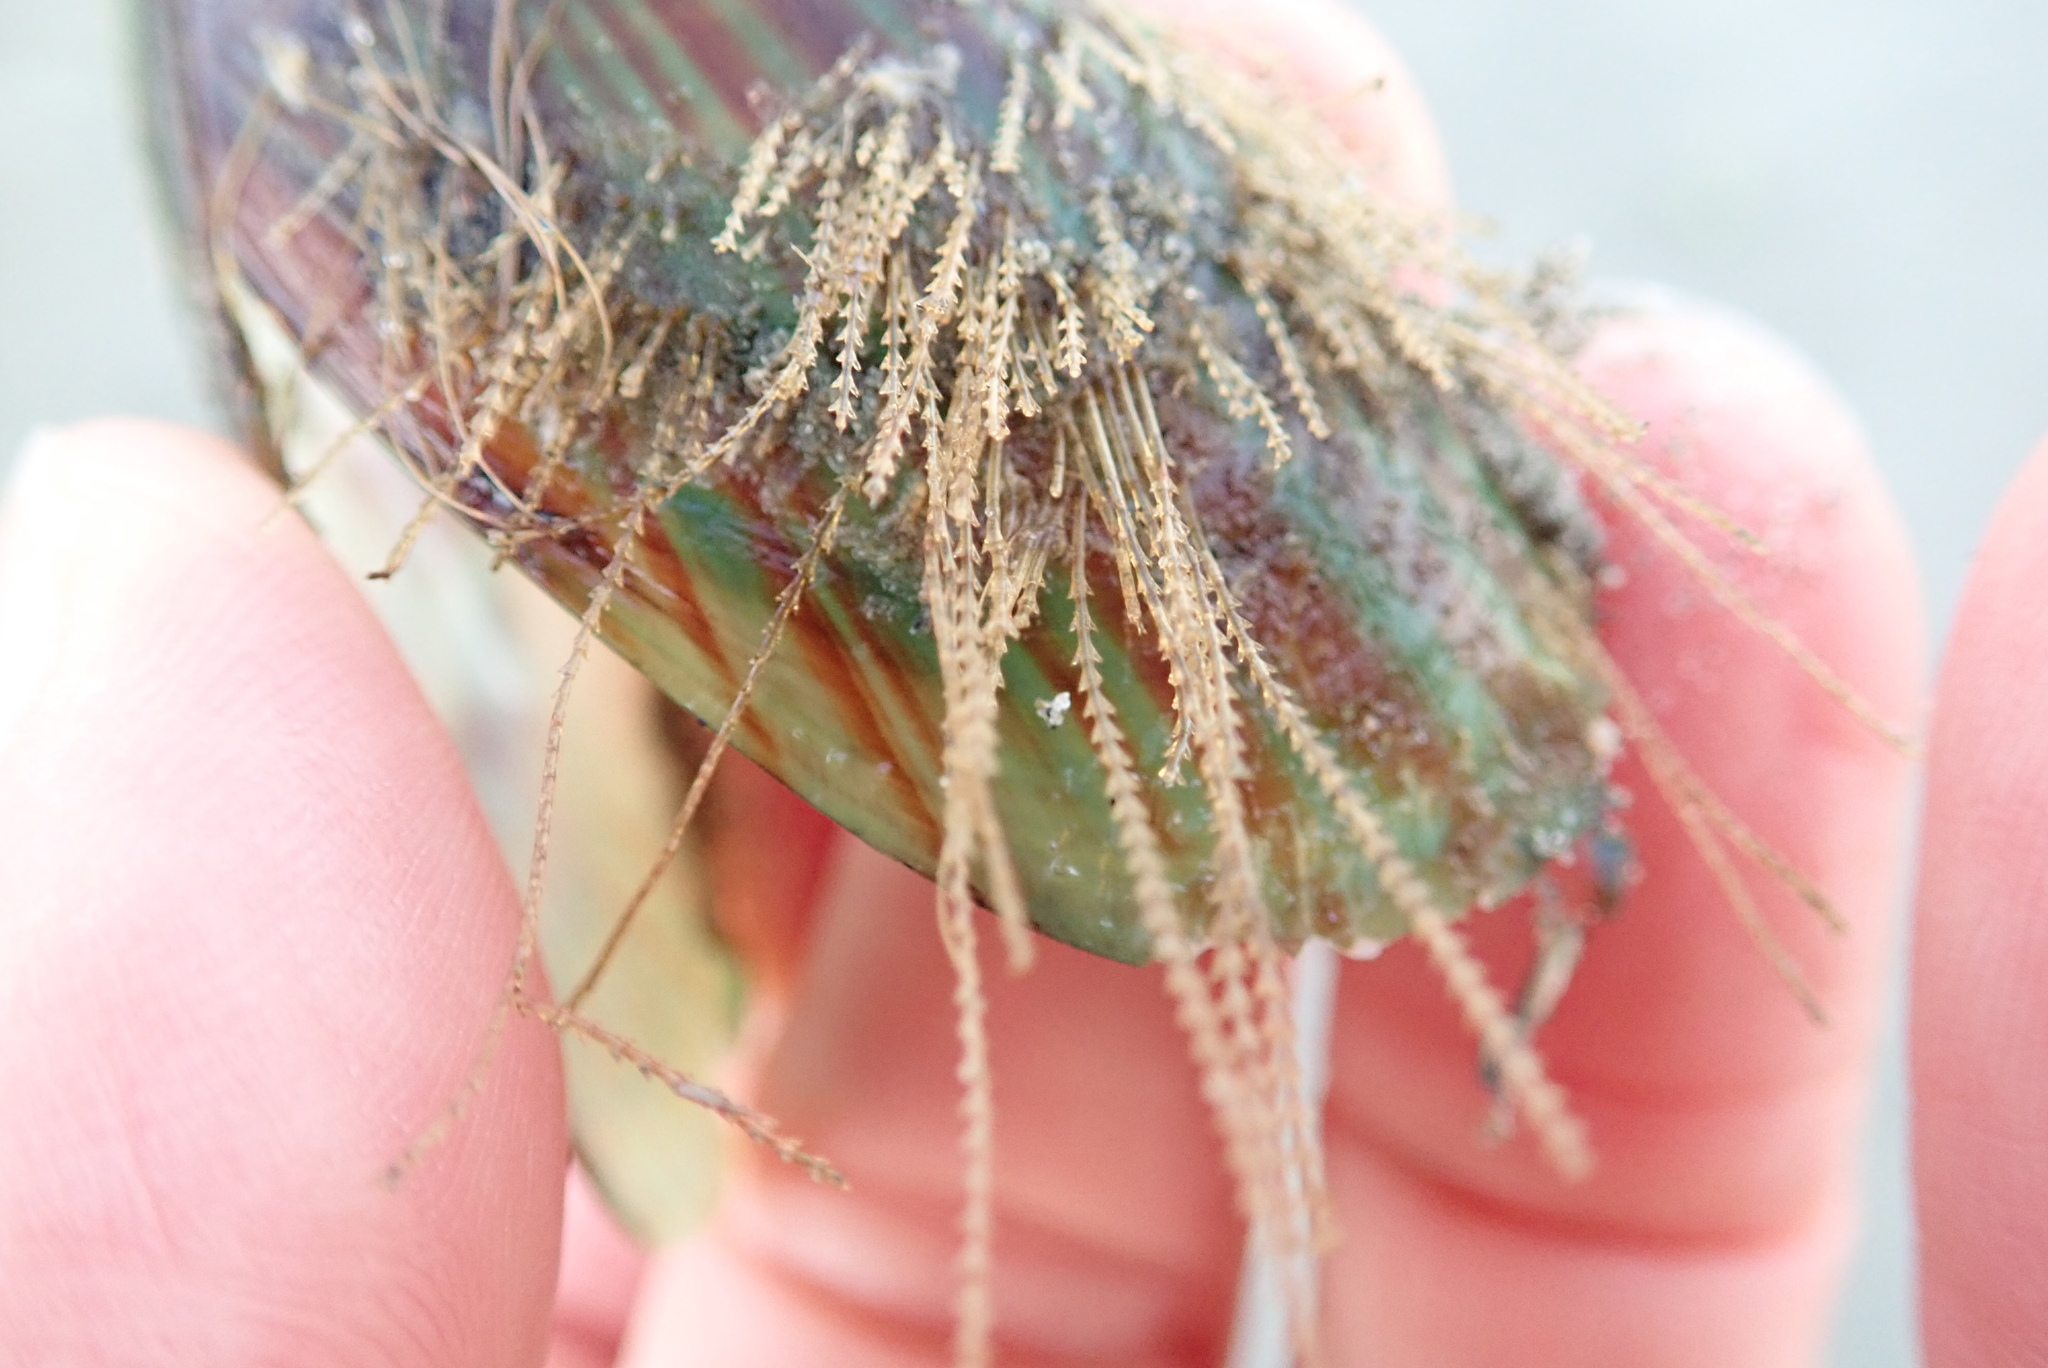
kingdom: Animalia
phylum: Cnidaria
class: Hydrozoa
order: Leptothecata
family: Sertulariidae
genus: Amphisbetia
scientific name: Amphisbetia bispinosa
